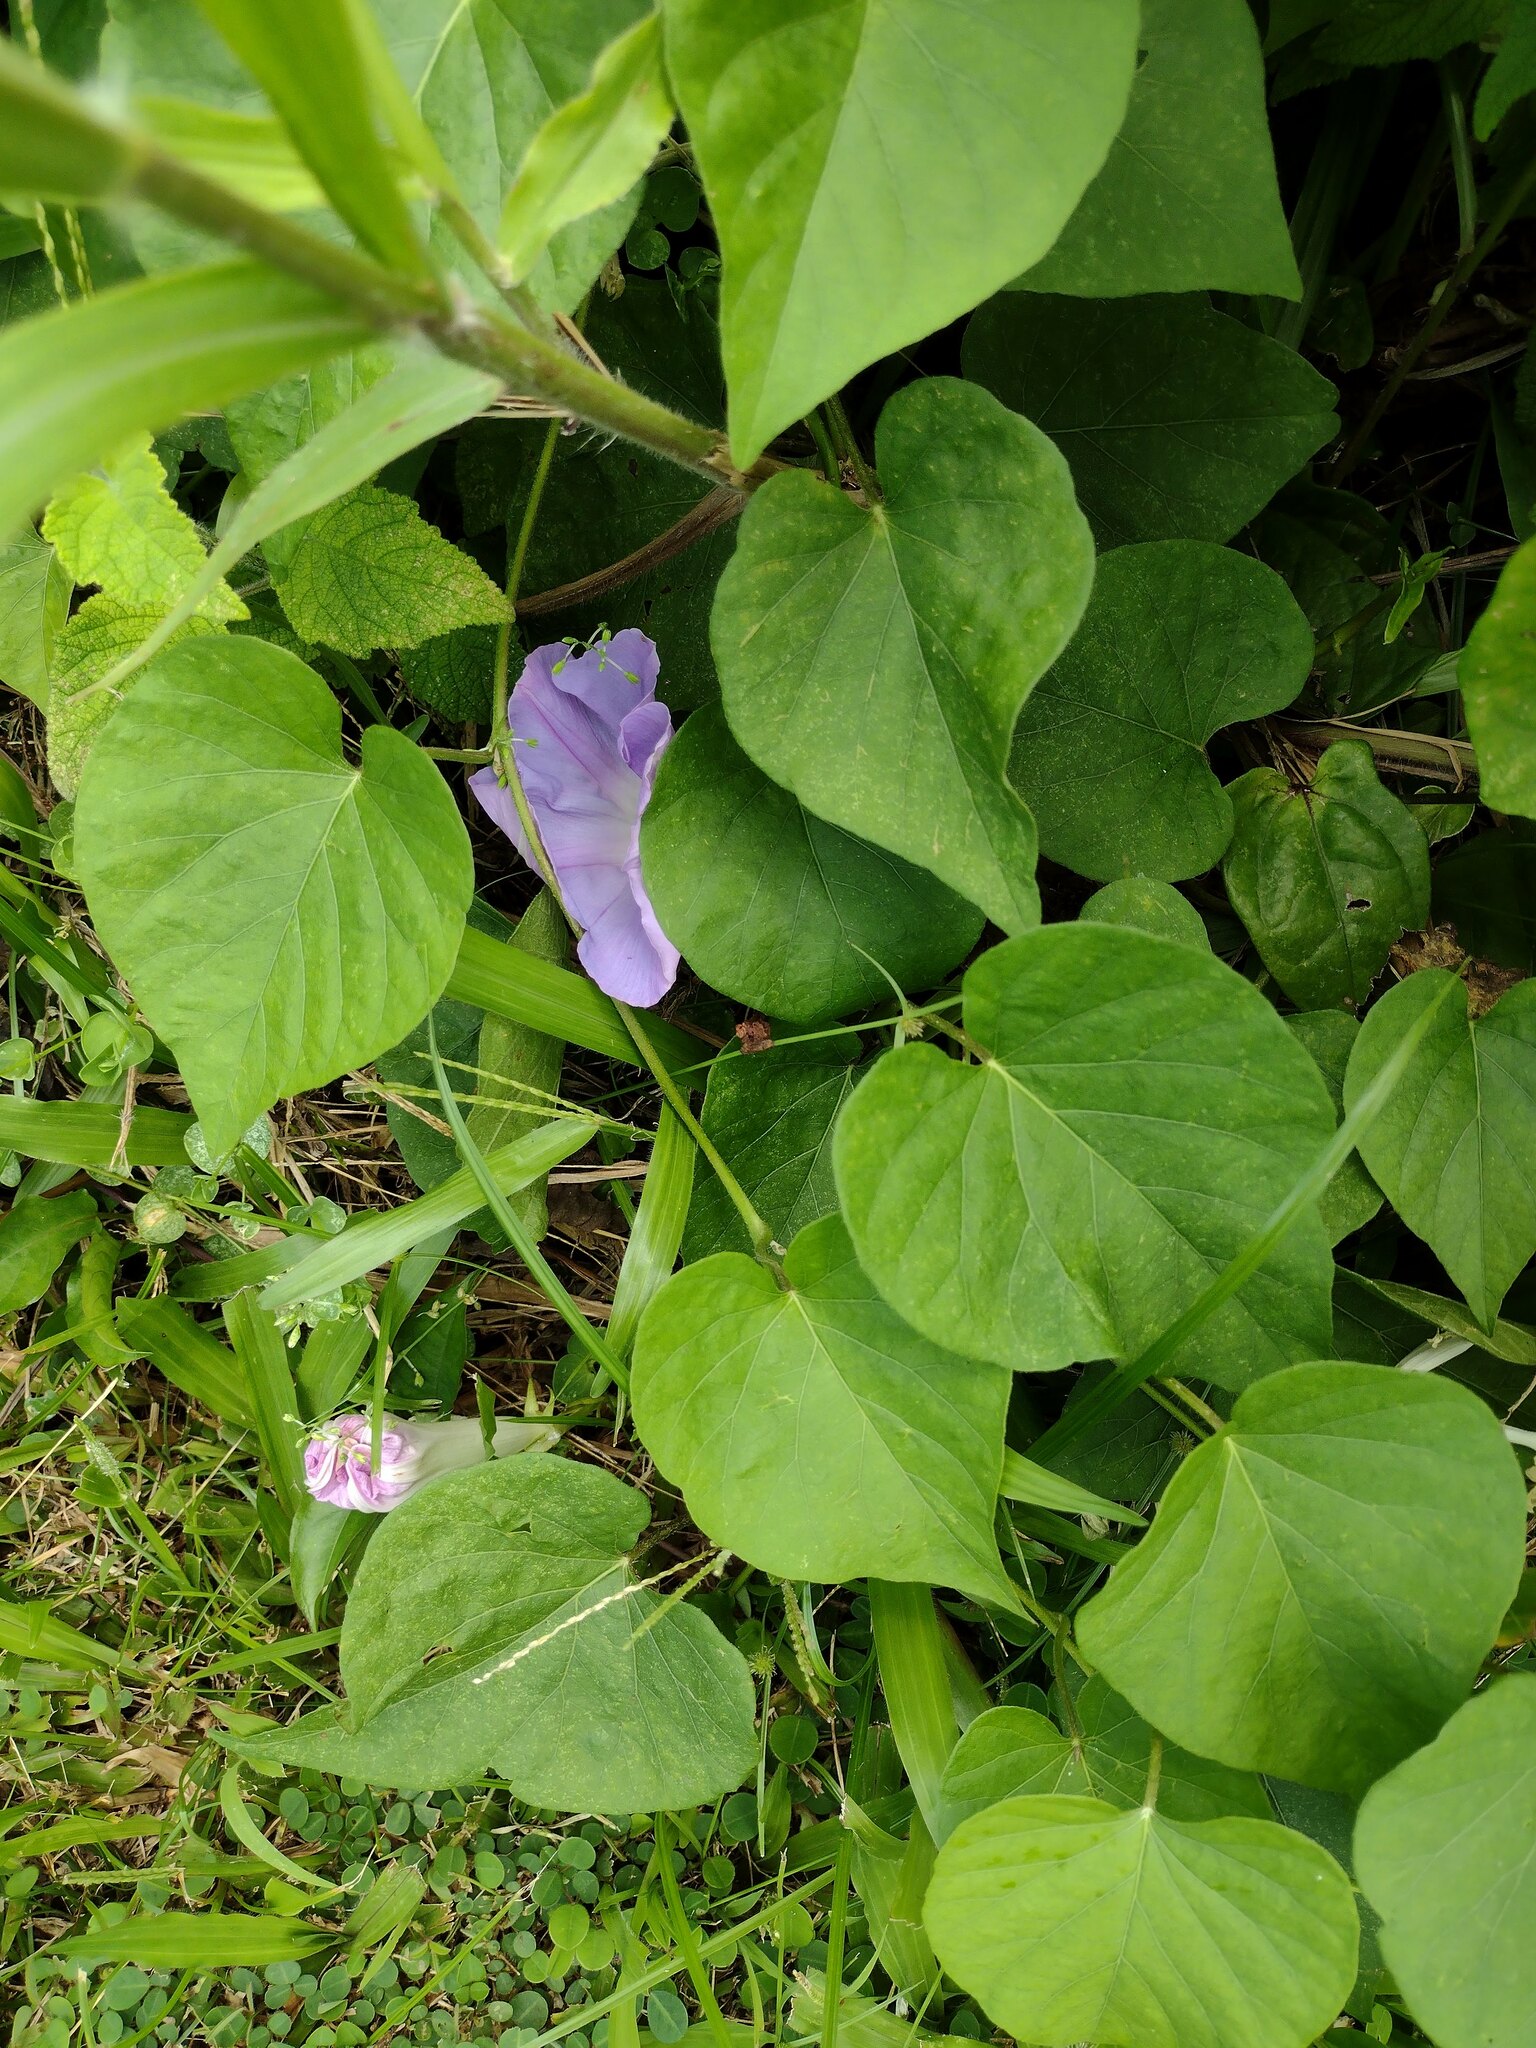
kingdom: Plantae
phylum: Tracheophyta
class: Magnoliopsida
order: Solanales
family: Convolvulaceae
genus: Ipomoea
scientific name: Ipomoea indica
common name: Blue dawnflower
